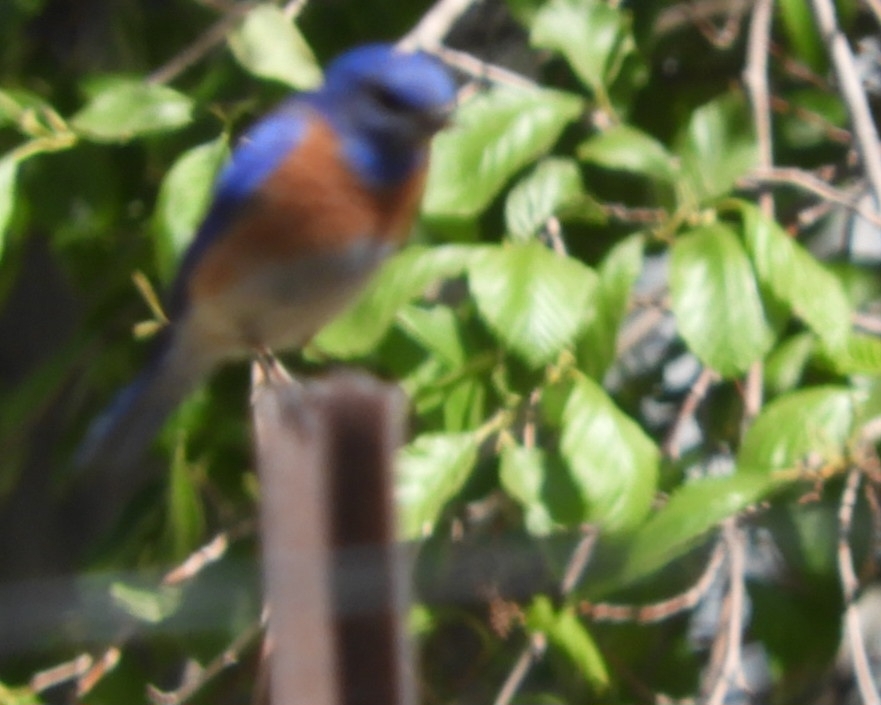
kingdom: Animalia
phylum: Chordata
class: Aves
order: Passeriformes
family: Turdidae
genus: Sialia
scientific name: Sialia mexicana
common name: Western bluebird
